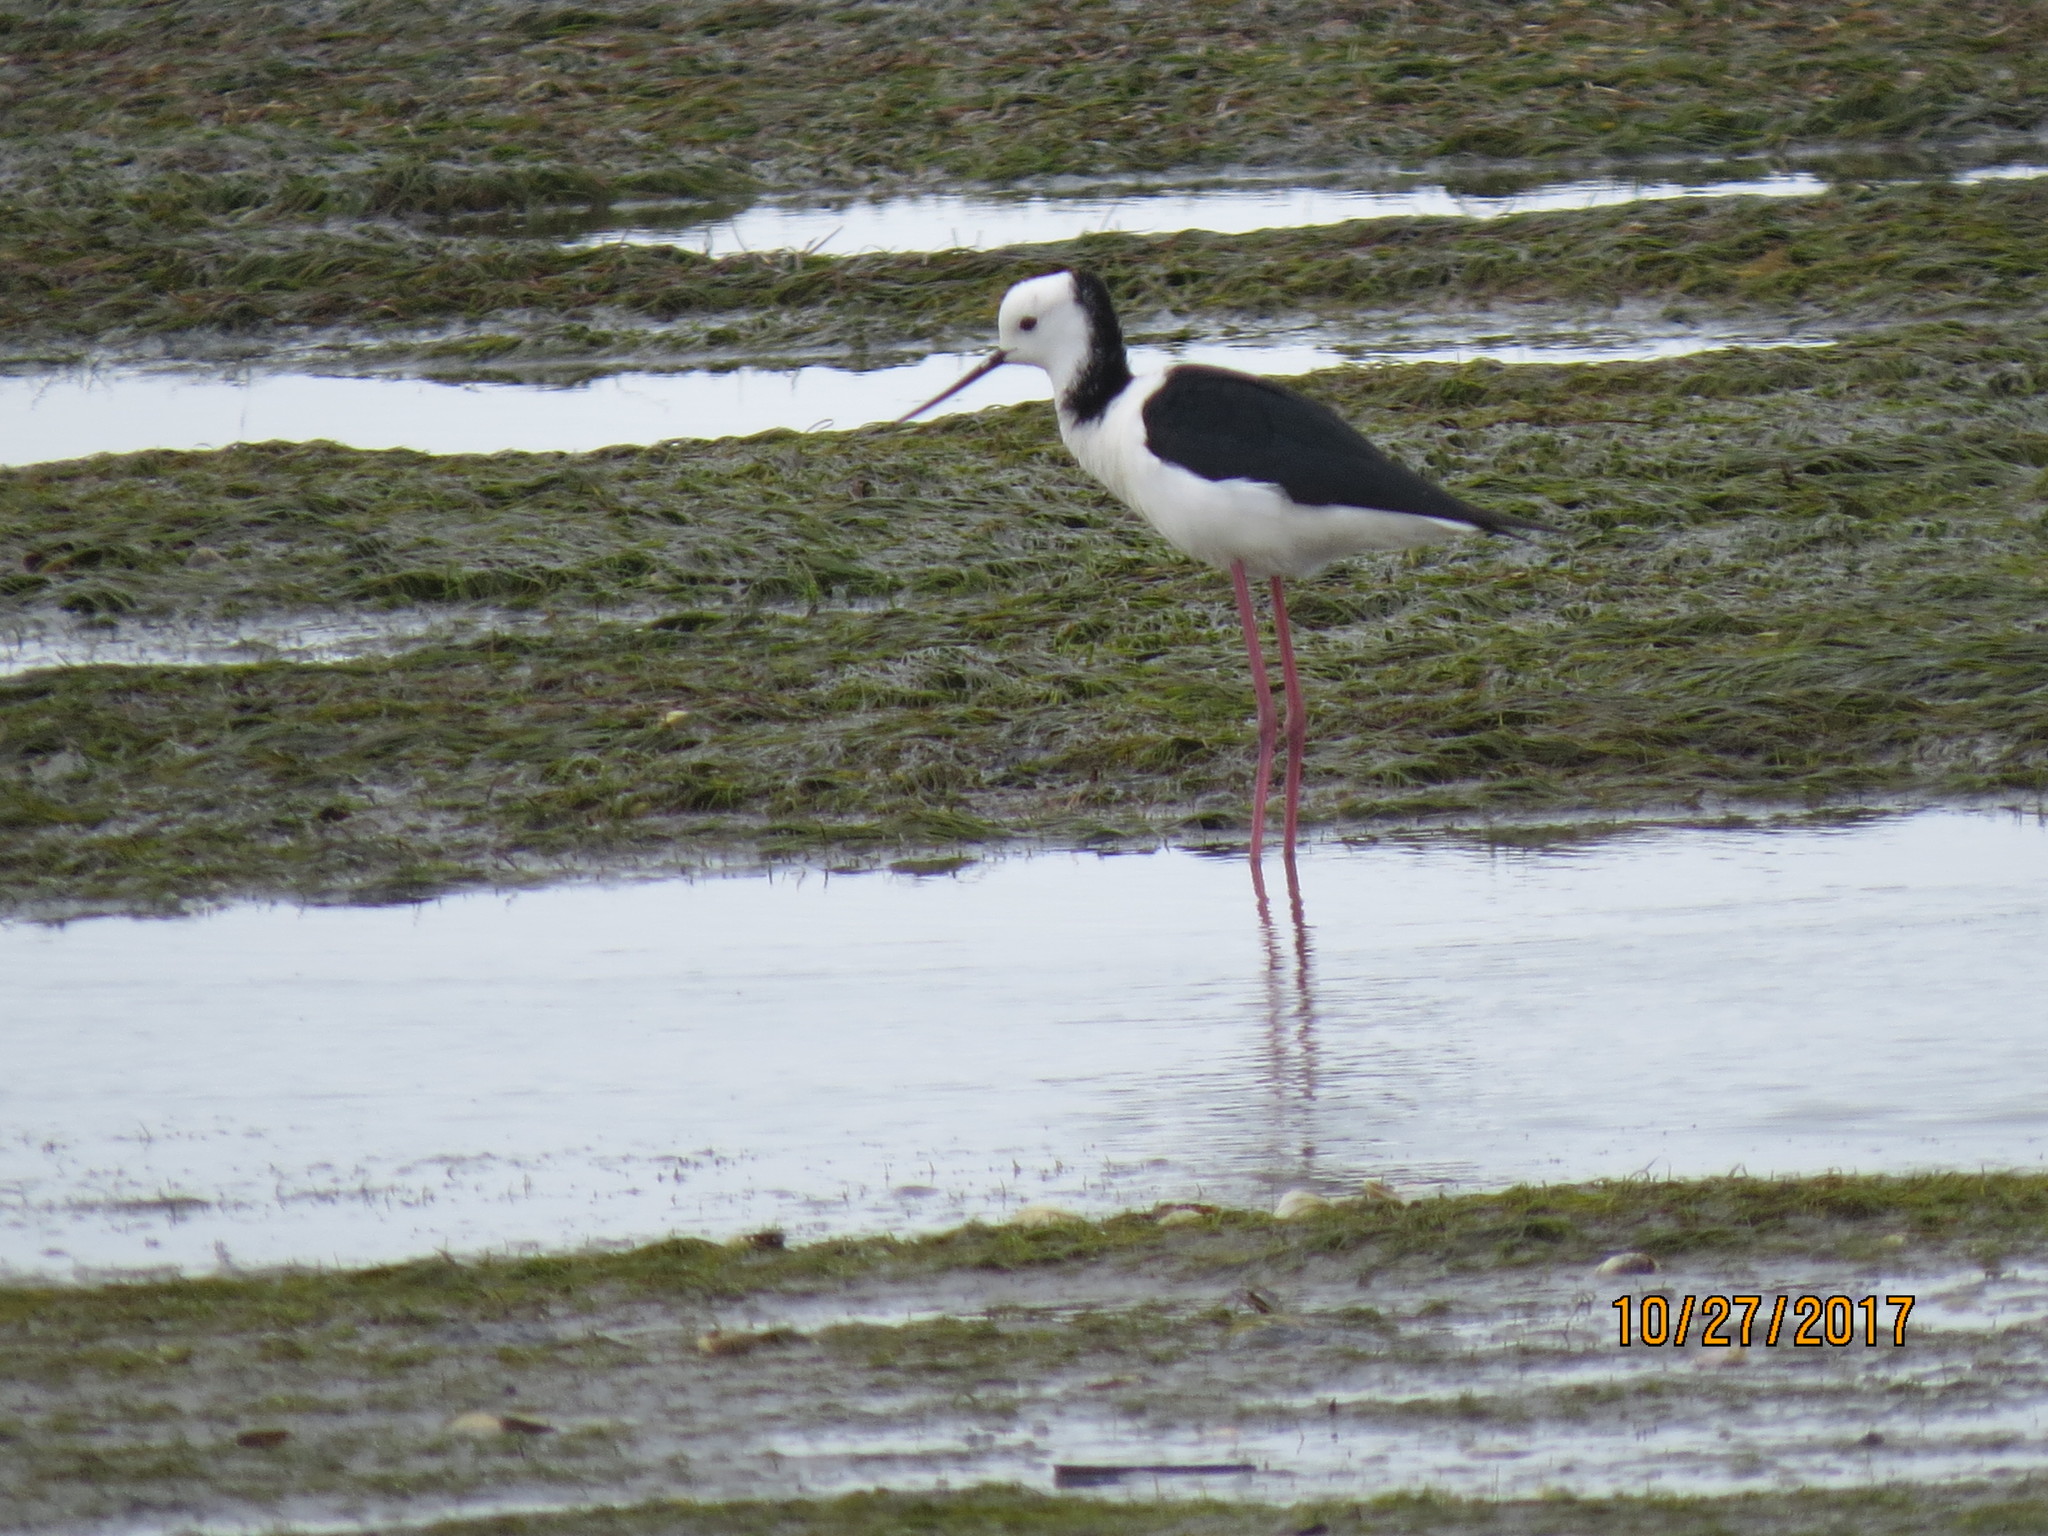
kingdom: Animalia
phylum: Chordata
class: Aves
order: Charadriiformes
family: Recurvirostridae
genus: Himantopus
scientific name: Himantopus leucocephalus
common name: White-headed stilt
